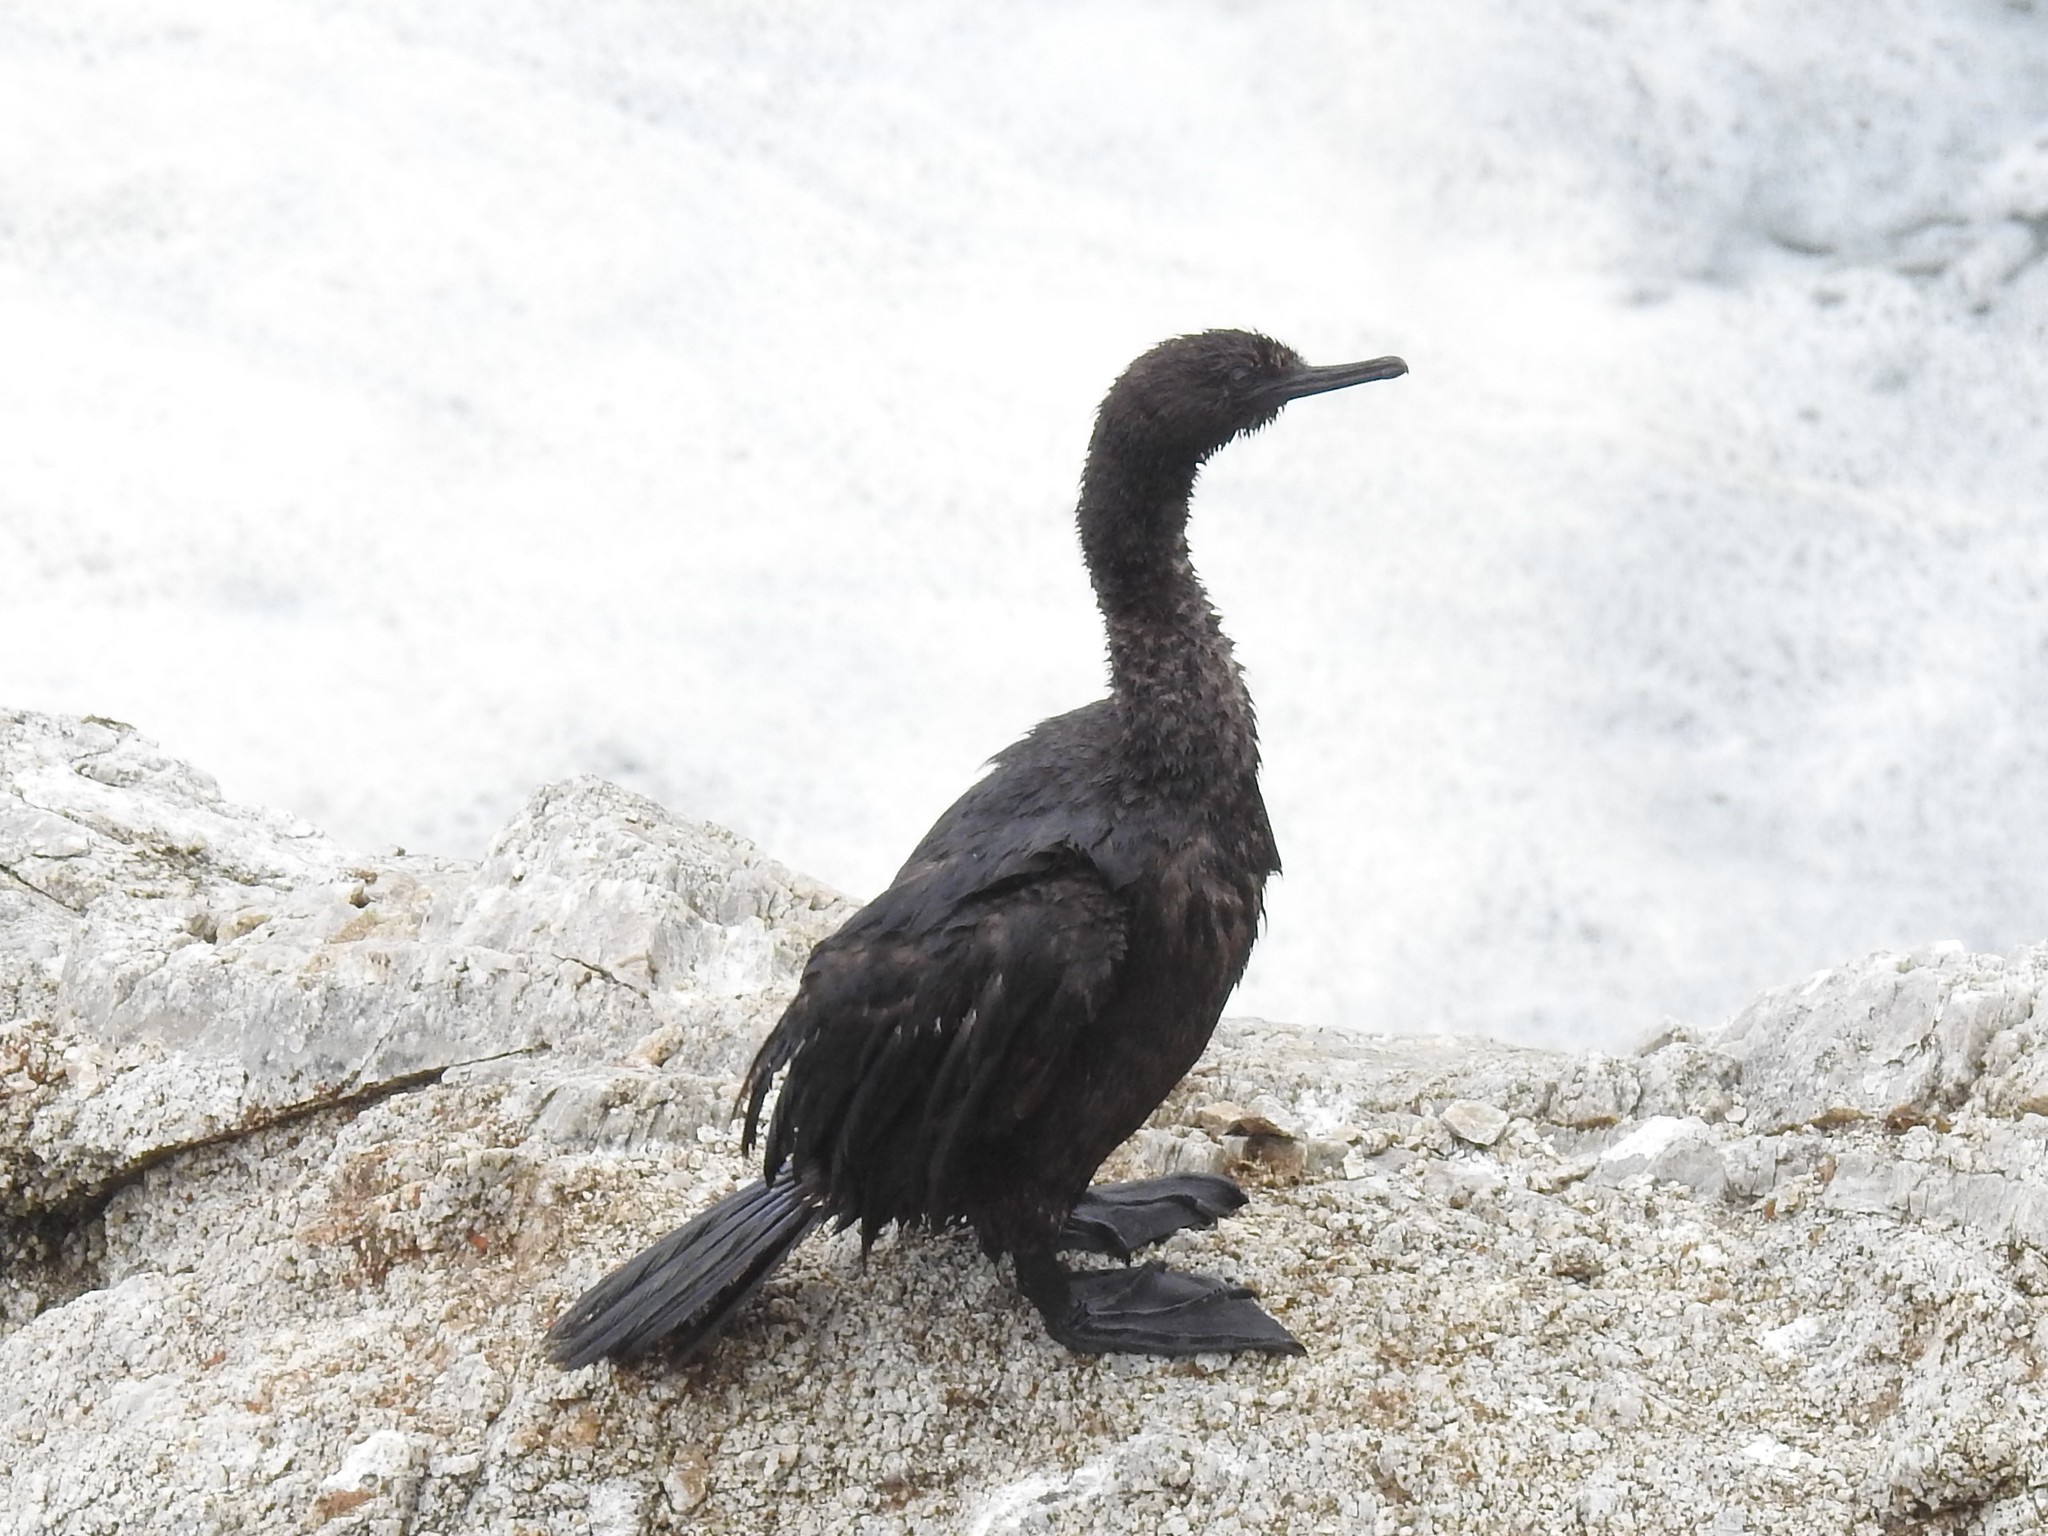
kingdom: Animalia
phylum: Chordata
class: Aves
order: Suliformes
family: Phalacrocoracidae
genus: Phalacrocorax
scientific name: Phalacrocorax pelagicus
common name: Pelagic cormorant
